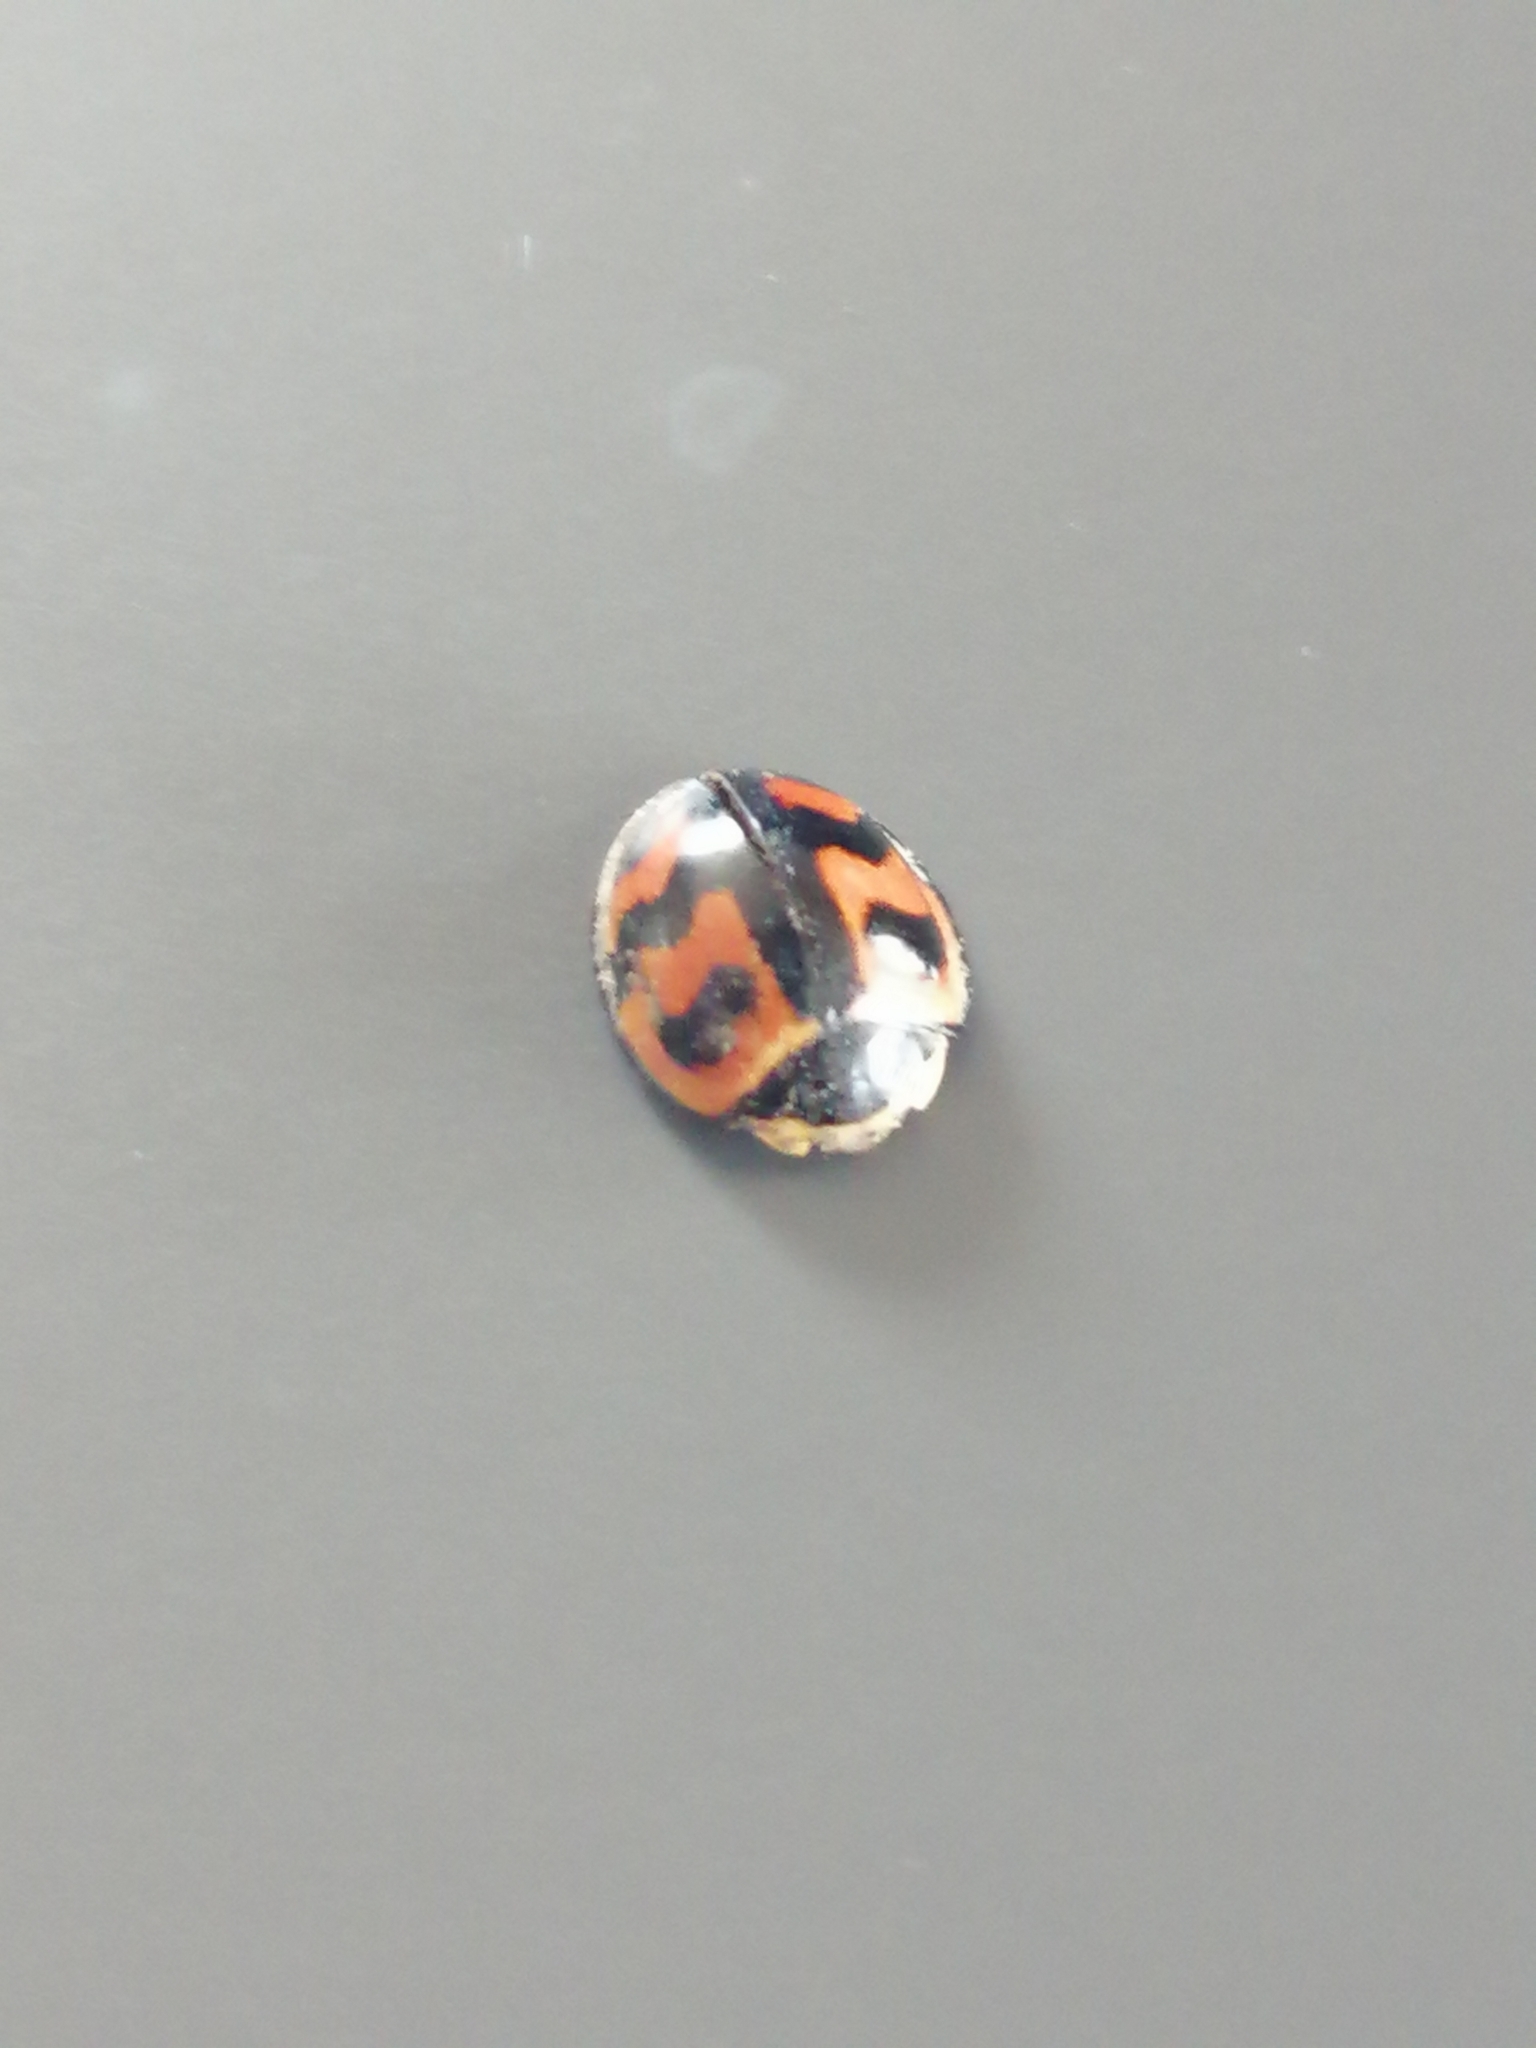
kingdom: Animalia
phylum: Arthropoda
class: Insecta
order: Coleoptera
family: Coccinellidae
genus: Cheilomenes
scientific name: Cheilomenes sexmaculata
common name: Ladybird beetle
